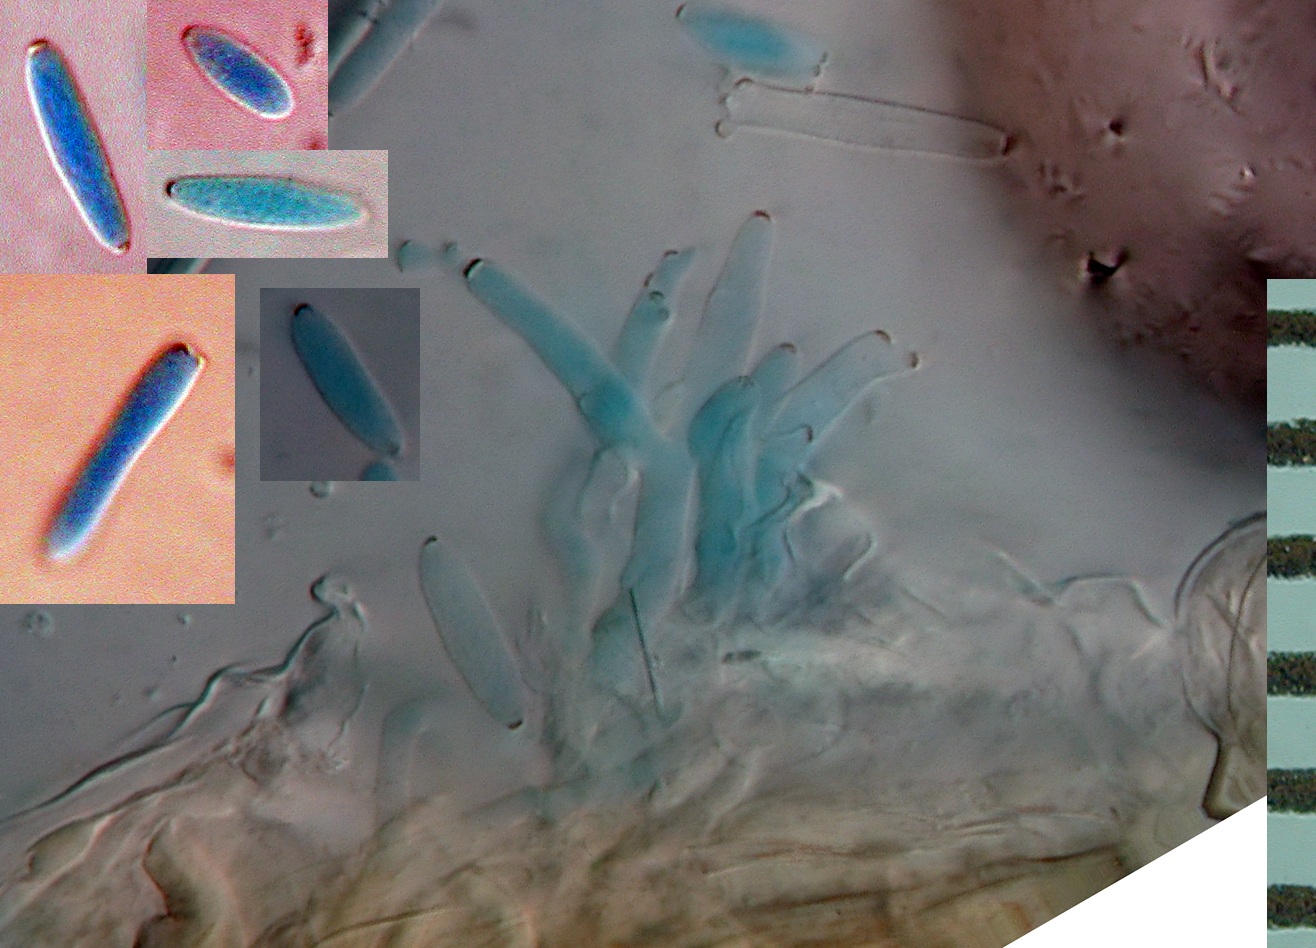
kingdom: Fungi
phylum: Ascomycota
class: Dothideomycetes
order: Mycosphaerellales
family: Mycosphaerellaceae
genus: Ramularia
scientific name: Ramularia variabilis
